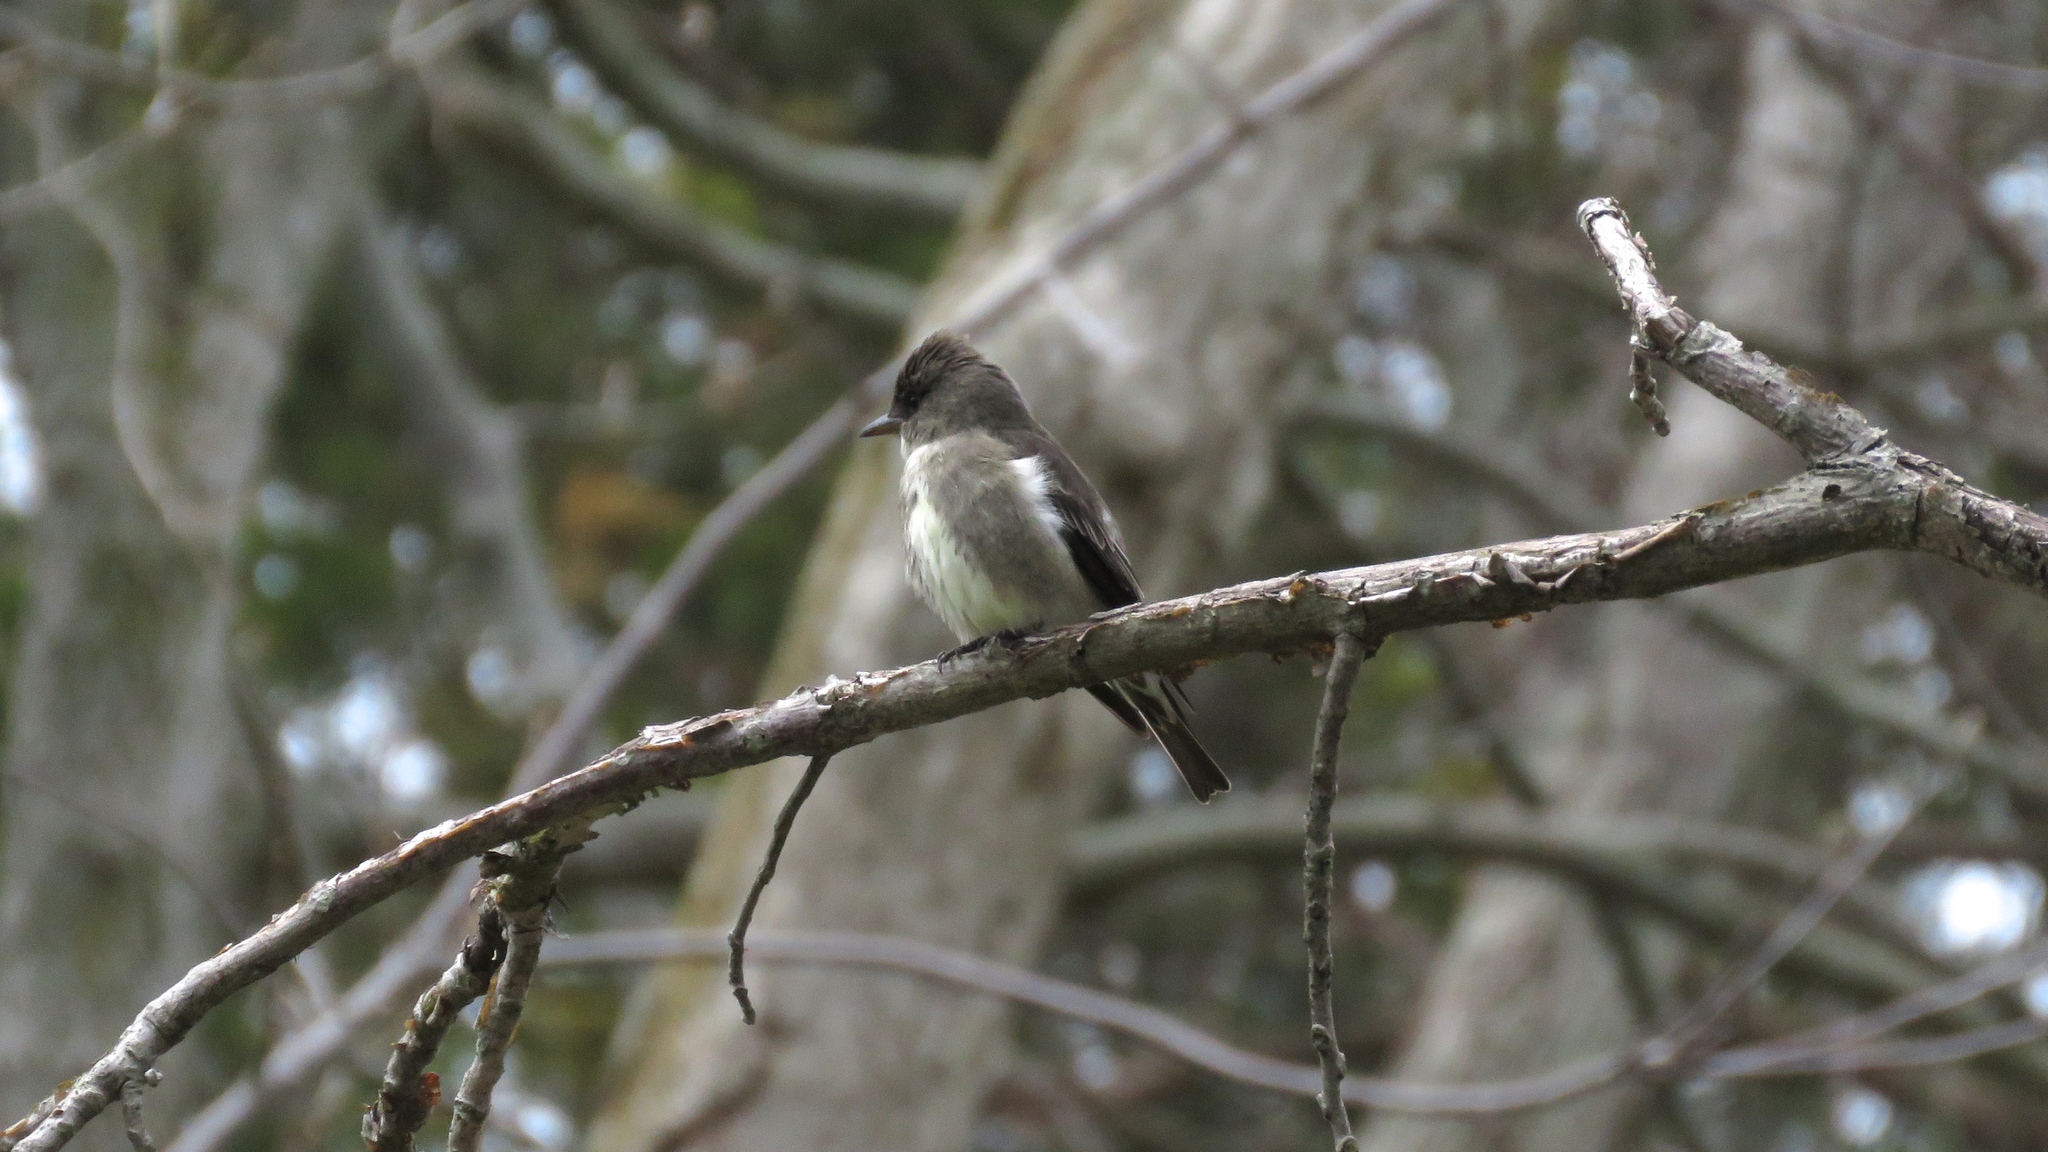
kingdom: Animalia
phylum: Chordata
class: Aves
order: Passeriformes
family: Tyrannidae
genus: Contopus
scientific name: Contopus cooperi
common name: Olive-sided flycatcher
